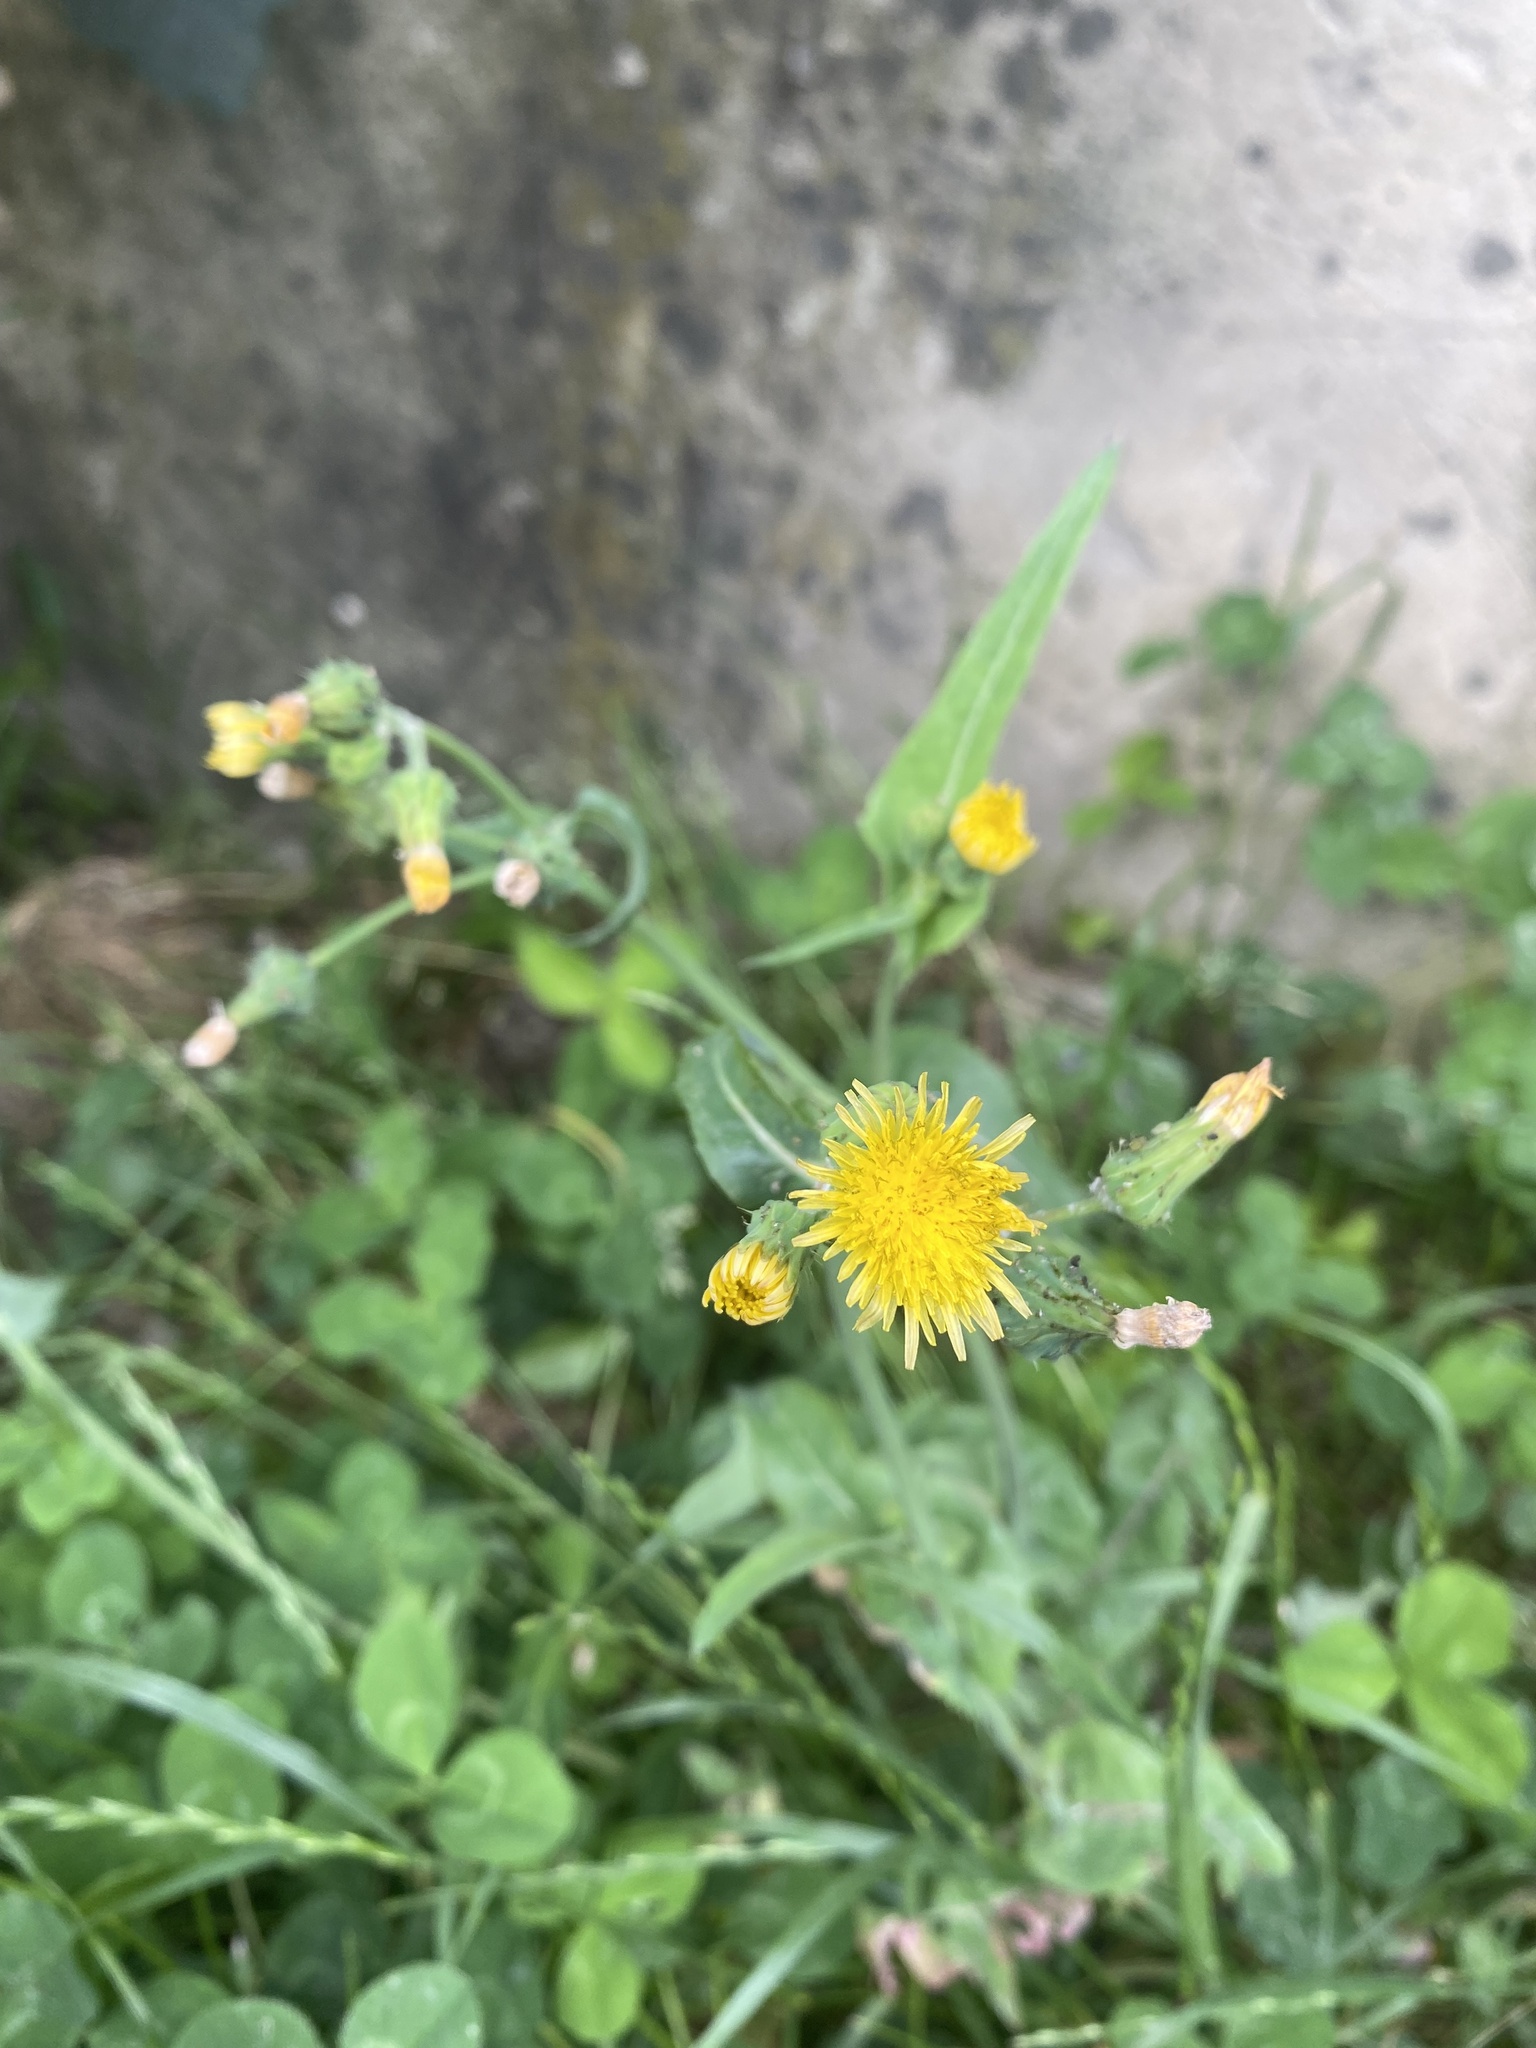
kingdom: Plantae
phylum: Tracheophyta
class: Magnoliopsida
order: Asterales
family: Asteraceae
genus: Sonchus
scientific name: Sonchus oleraceus
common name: Common sowthistle
